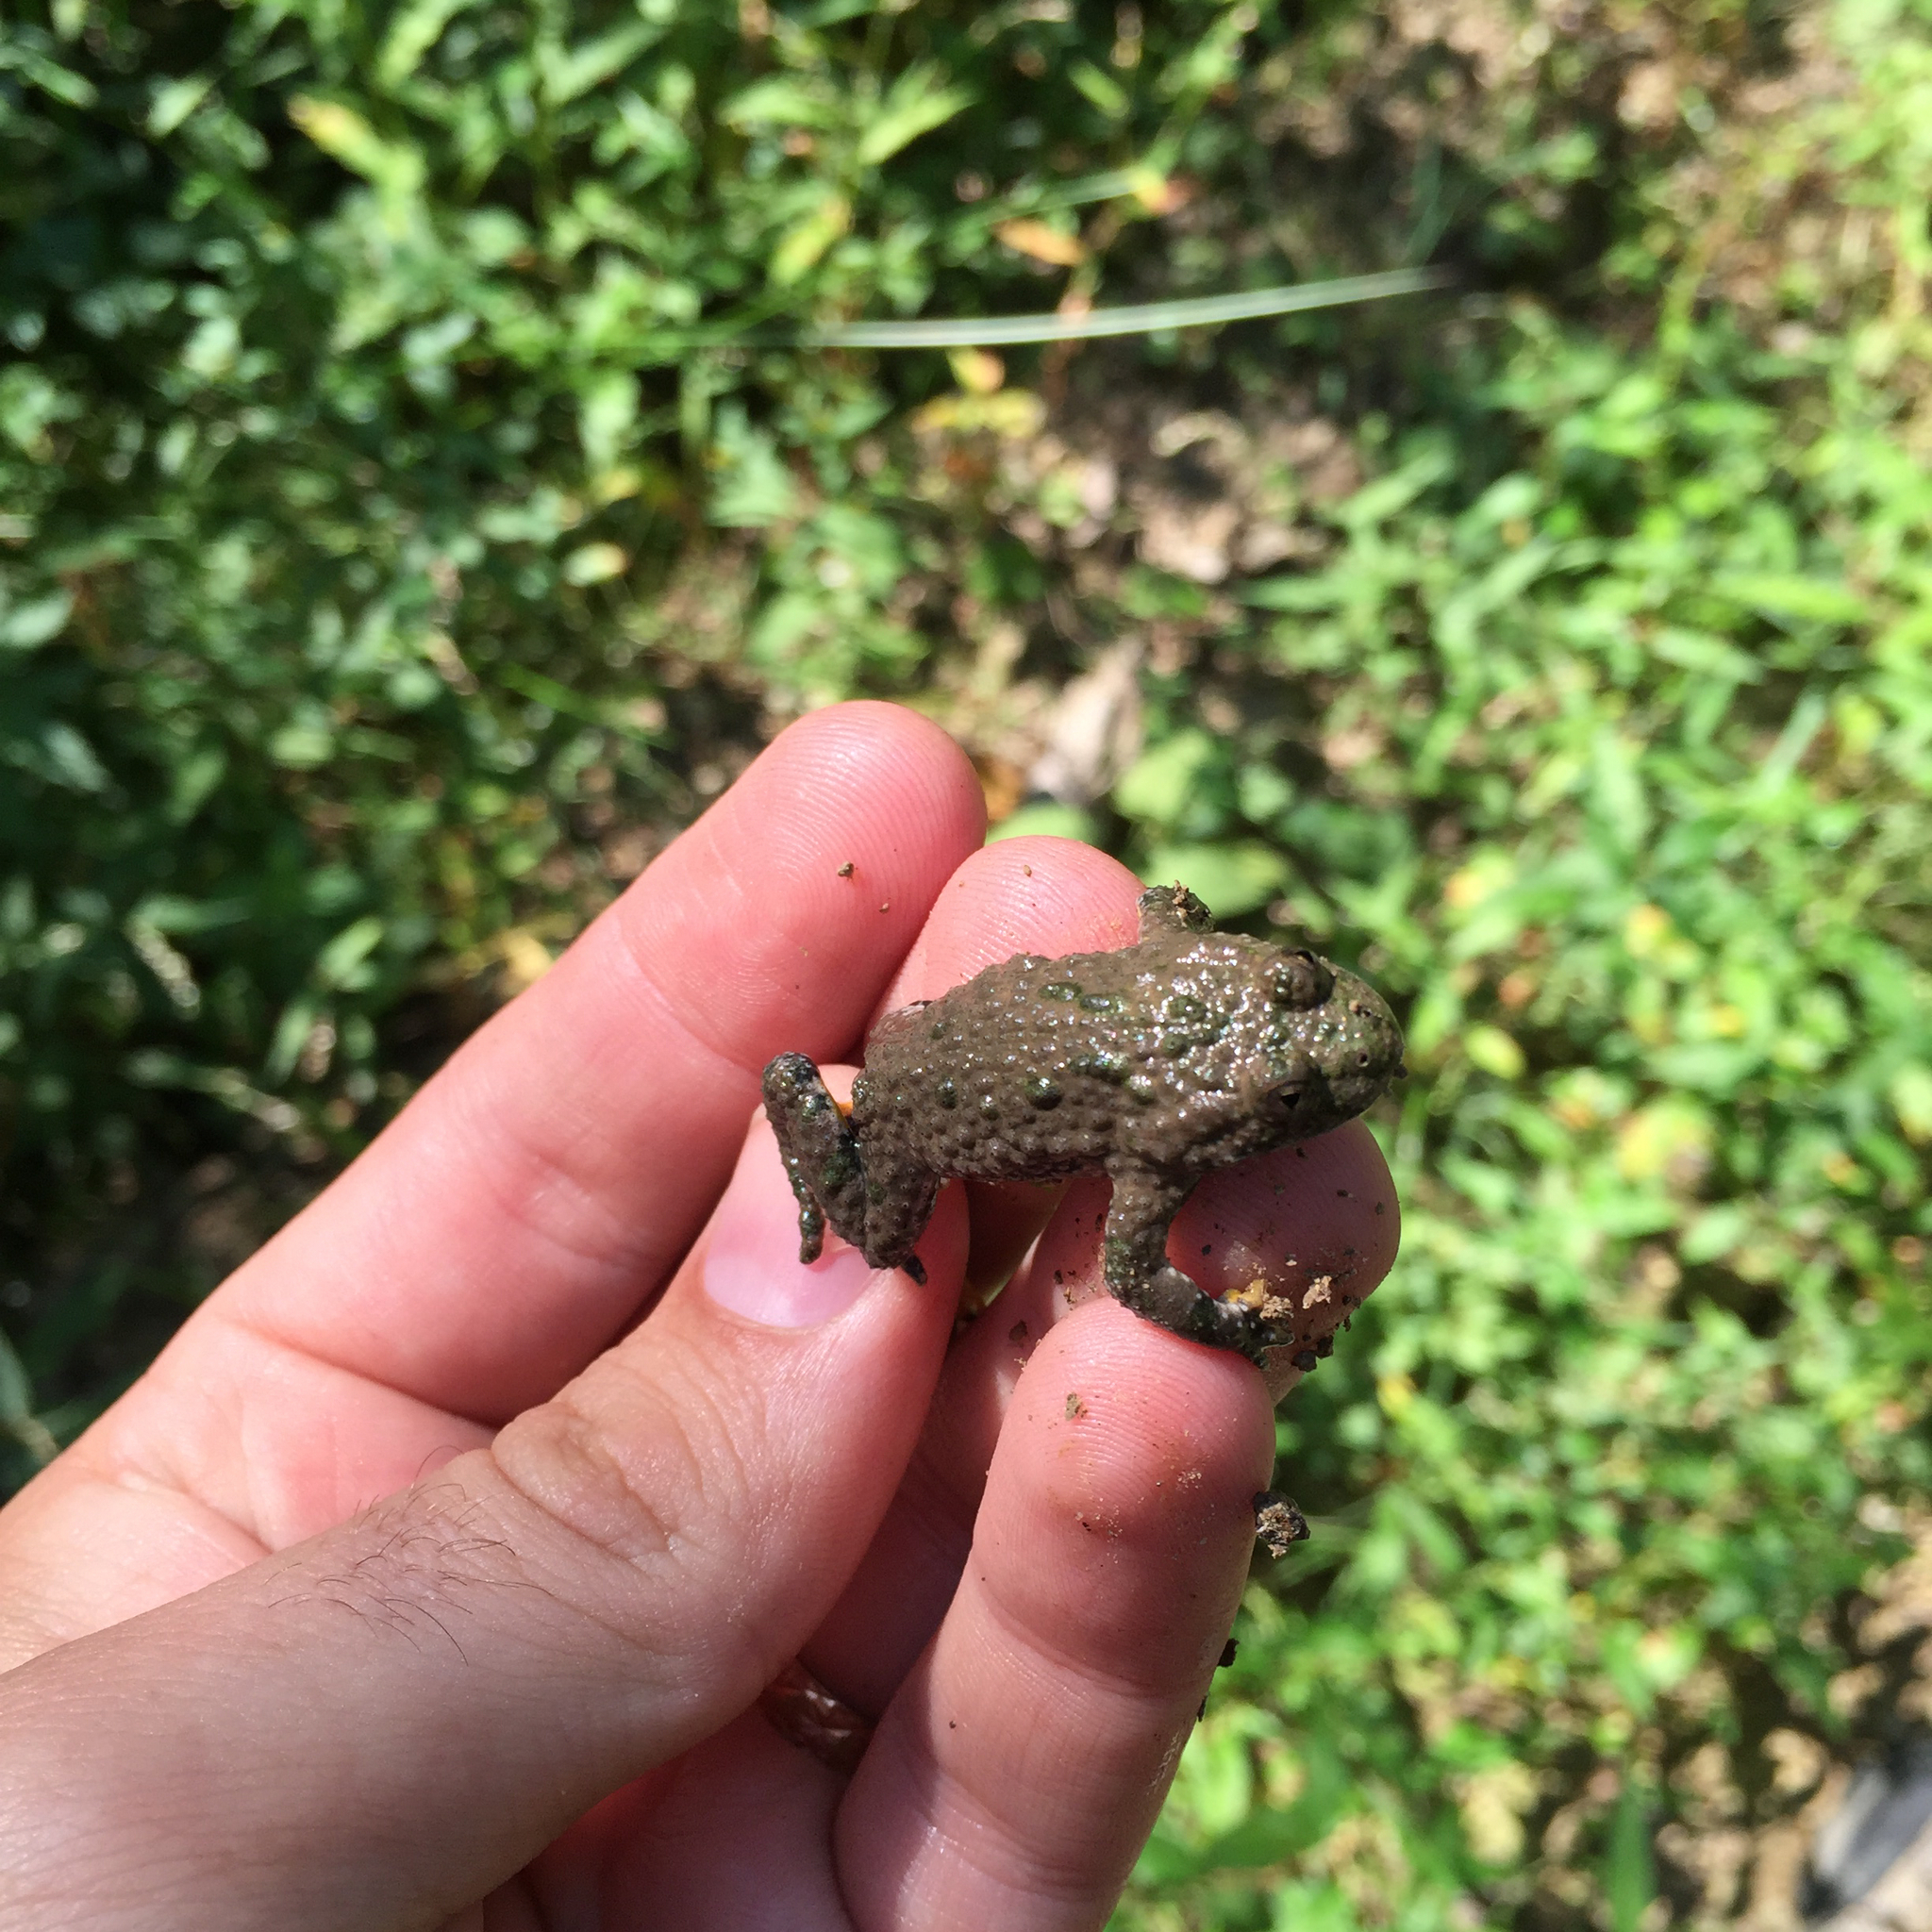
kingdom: Animalia
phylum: Chordata
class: Amphibia
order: Anura
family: Bombinatoridae
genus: Bombina
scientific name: Bombina variegata
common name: Yellow-bellied toad
